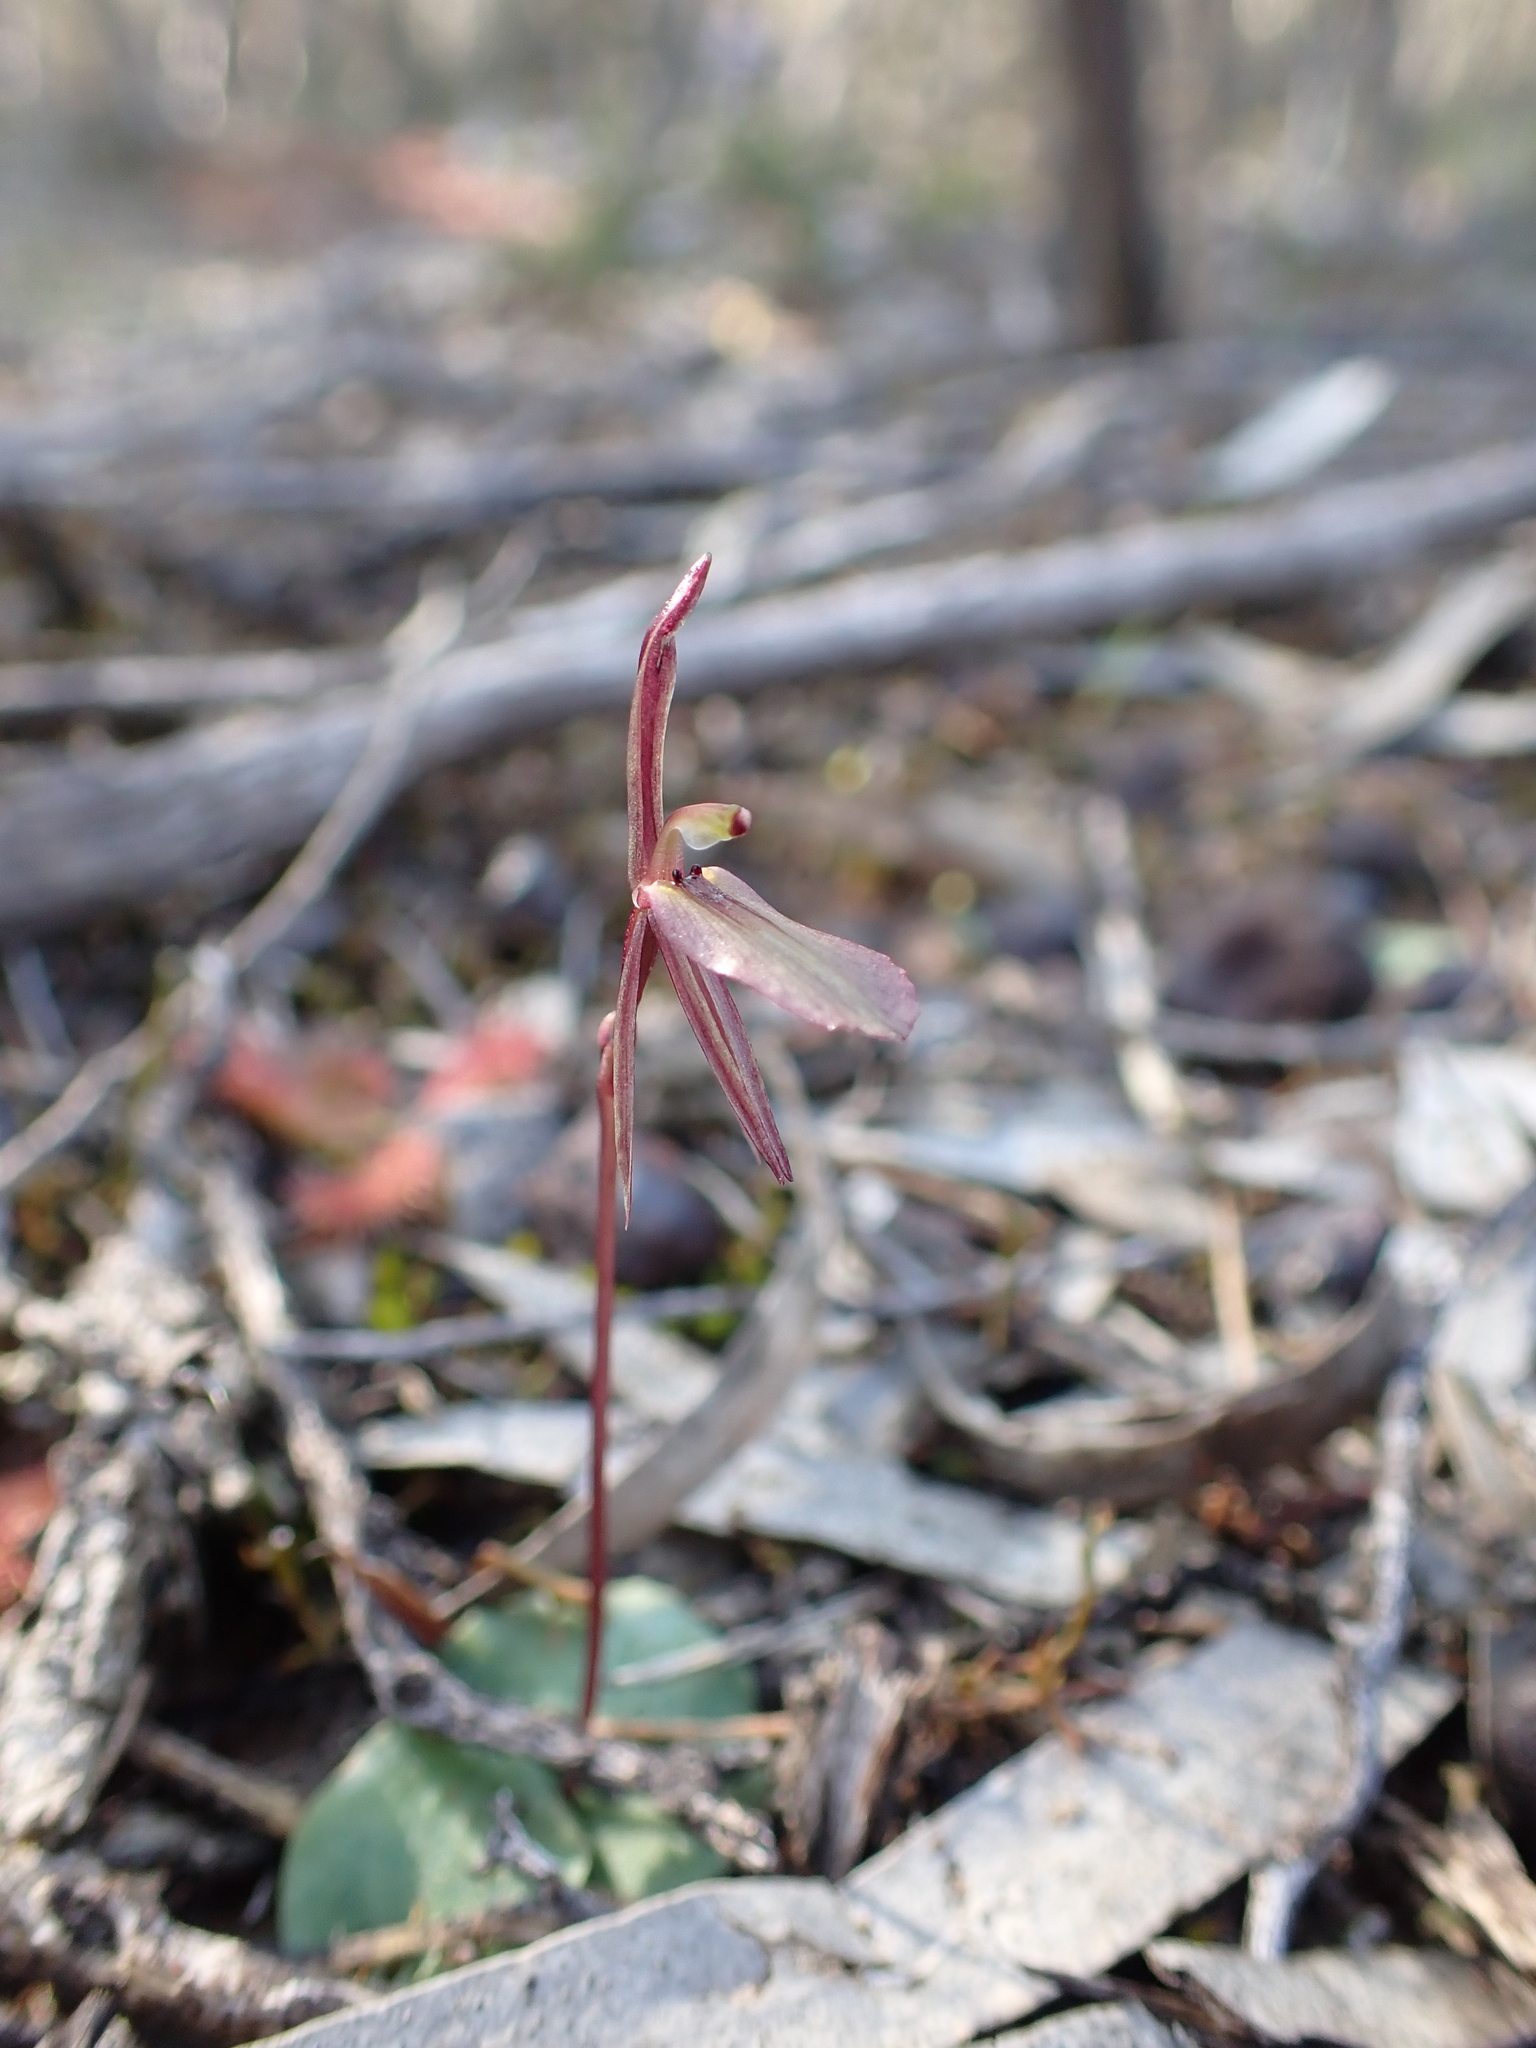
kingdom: Plantae
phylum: Tracheophyta
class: Liliopsida
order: Asparagales
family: Orchidaceae
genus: Cyrtostylis
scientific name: Cyrtostylis reniformis
